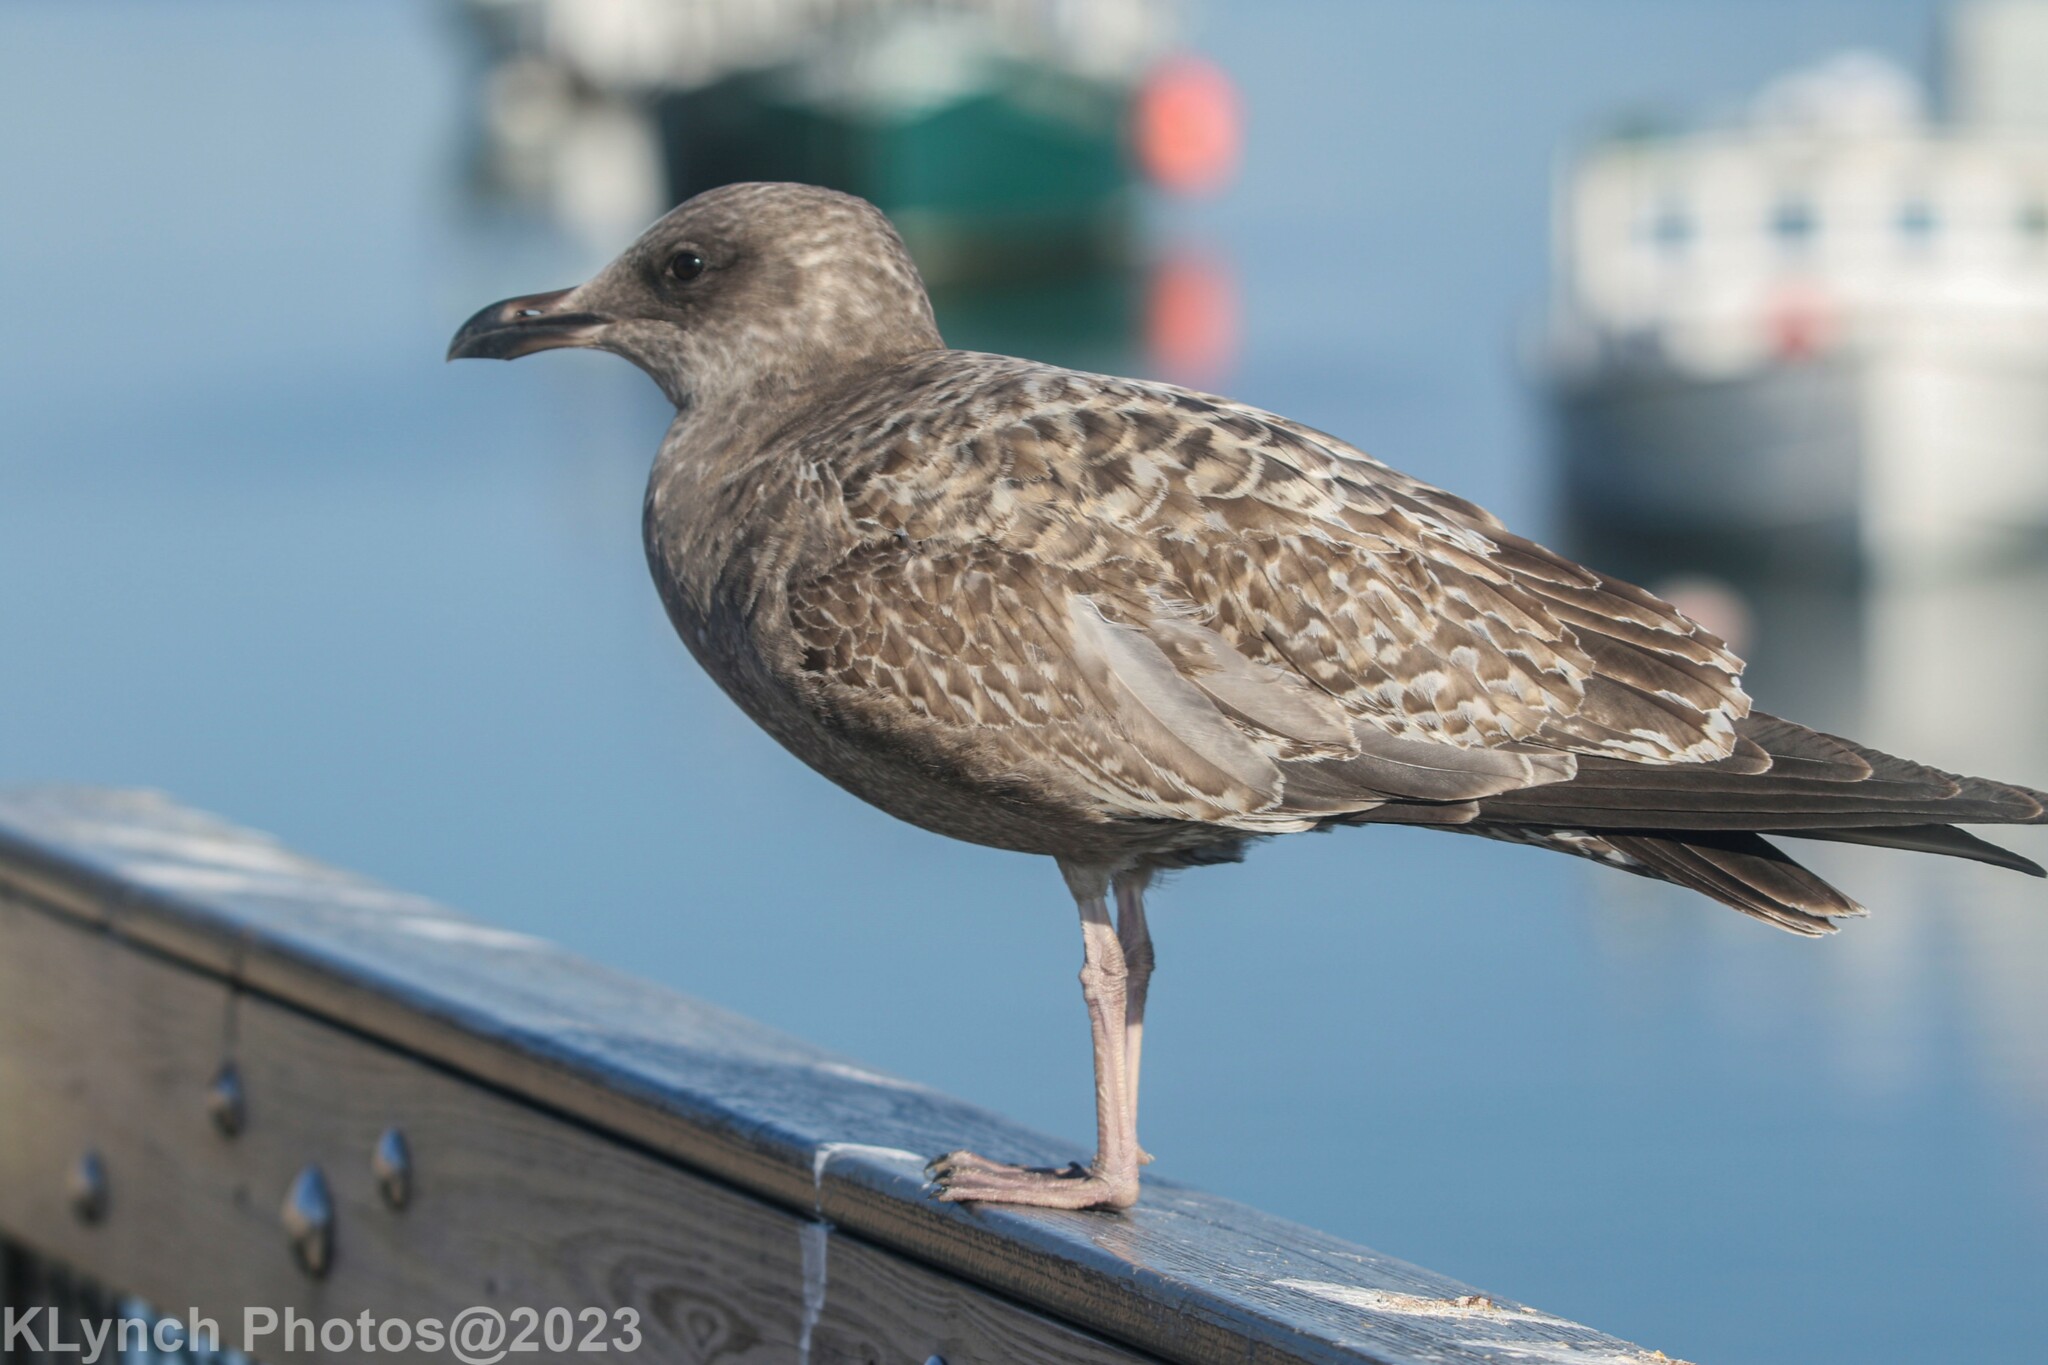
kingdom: Animalia
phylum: Chordata
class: Aves
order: Charadriiformes
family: Laridae
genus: Larus
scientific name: Larus argentatus
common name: Herring gull
